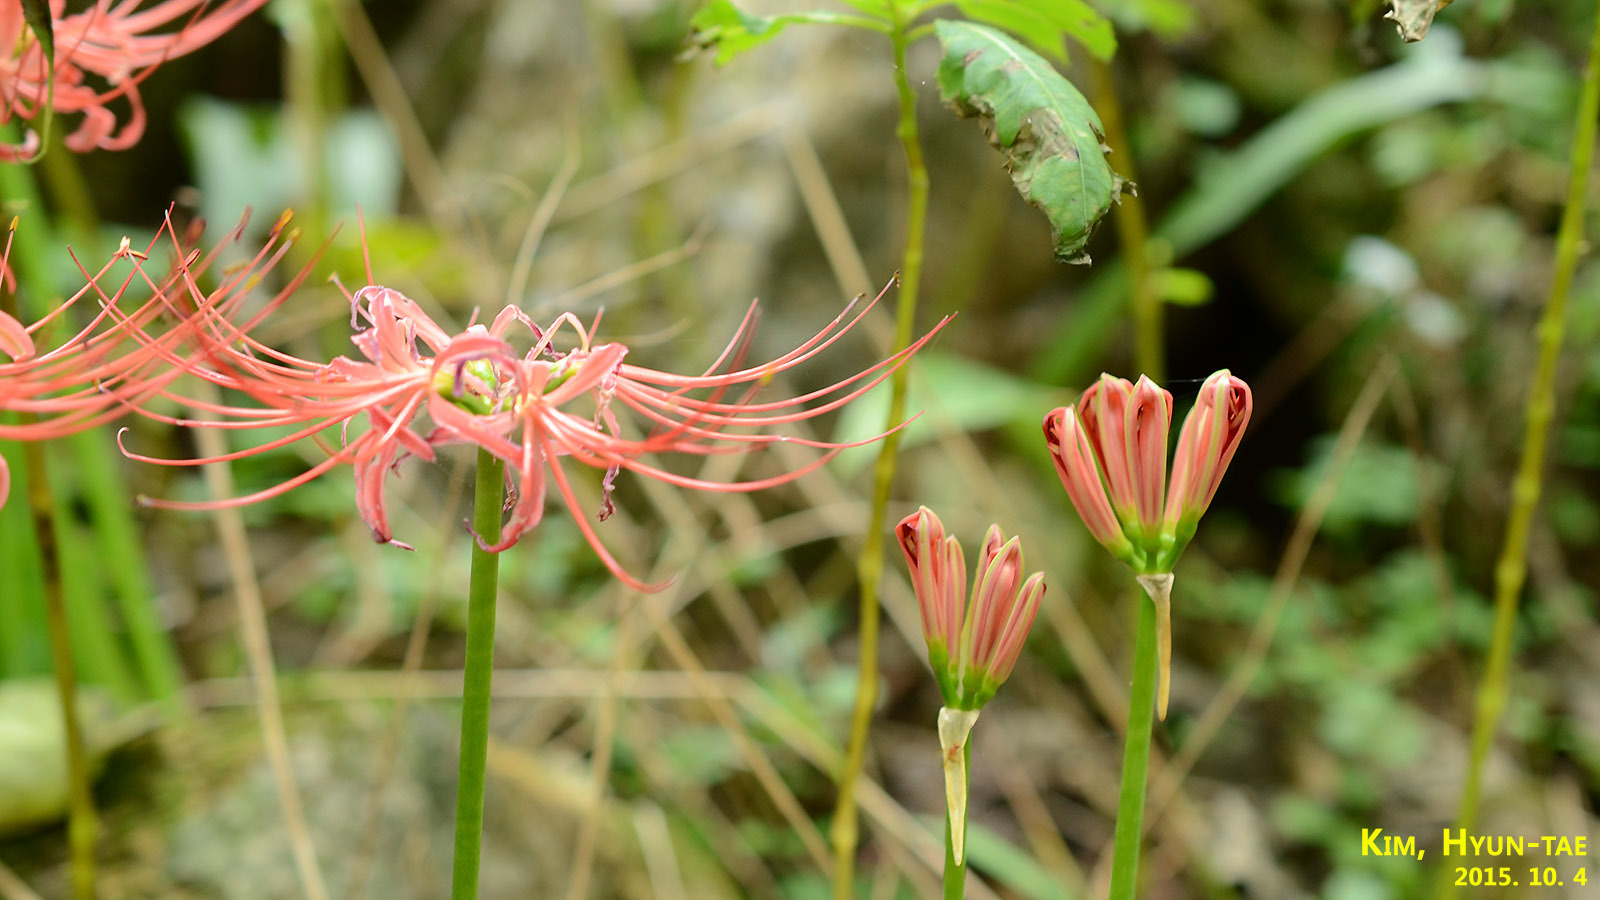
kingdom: Plantae
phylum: Tracheophyta
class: Liliopsida
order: Asparagales
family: Amaryllidaceae
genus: Lycoris
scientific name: Lycoris radiata
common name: Red spider lily
